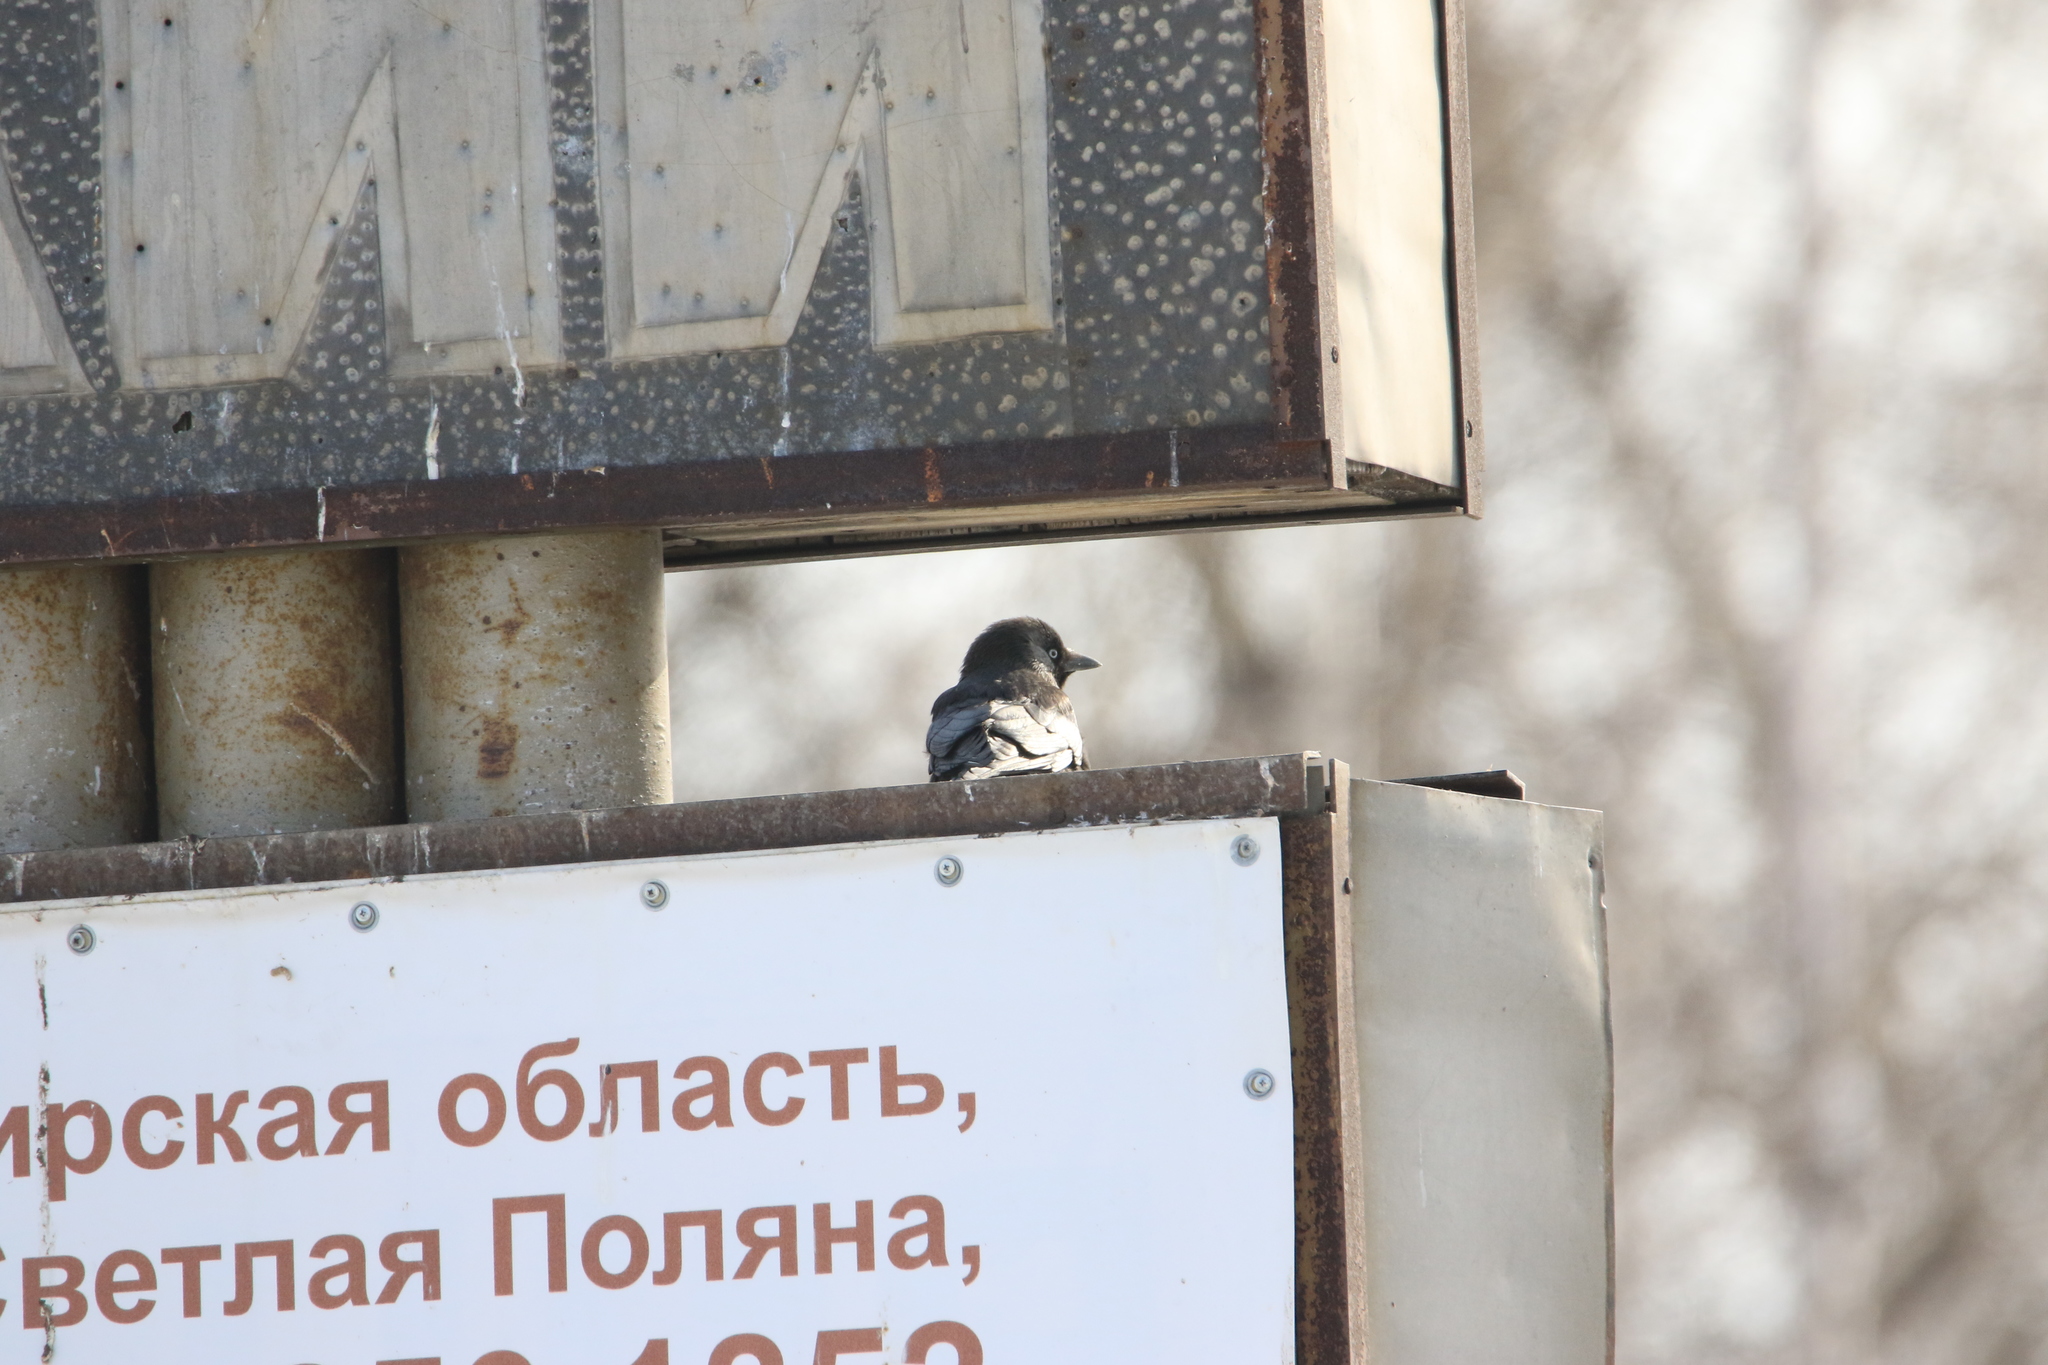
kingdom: Animalia
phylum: Chordata
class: Aves
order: Passeriformes
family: Corvidae
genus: Coloeus
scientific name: Coloeus monedula
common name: Western jackdaw
